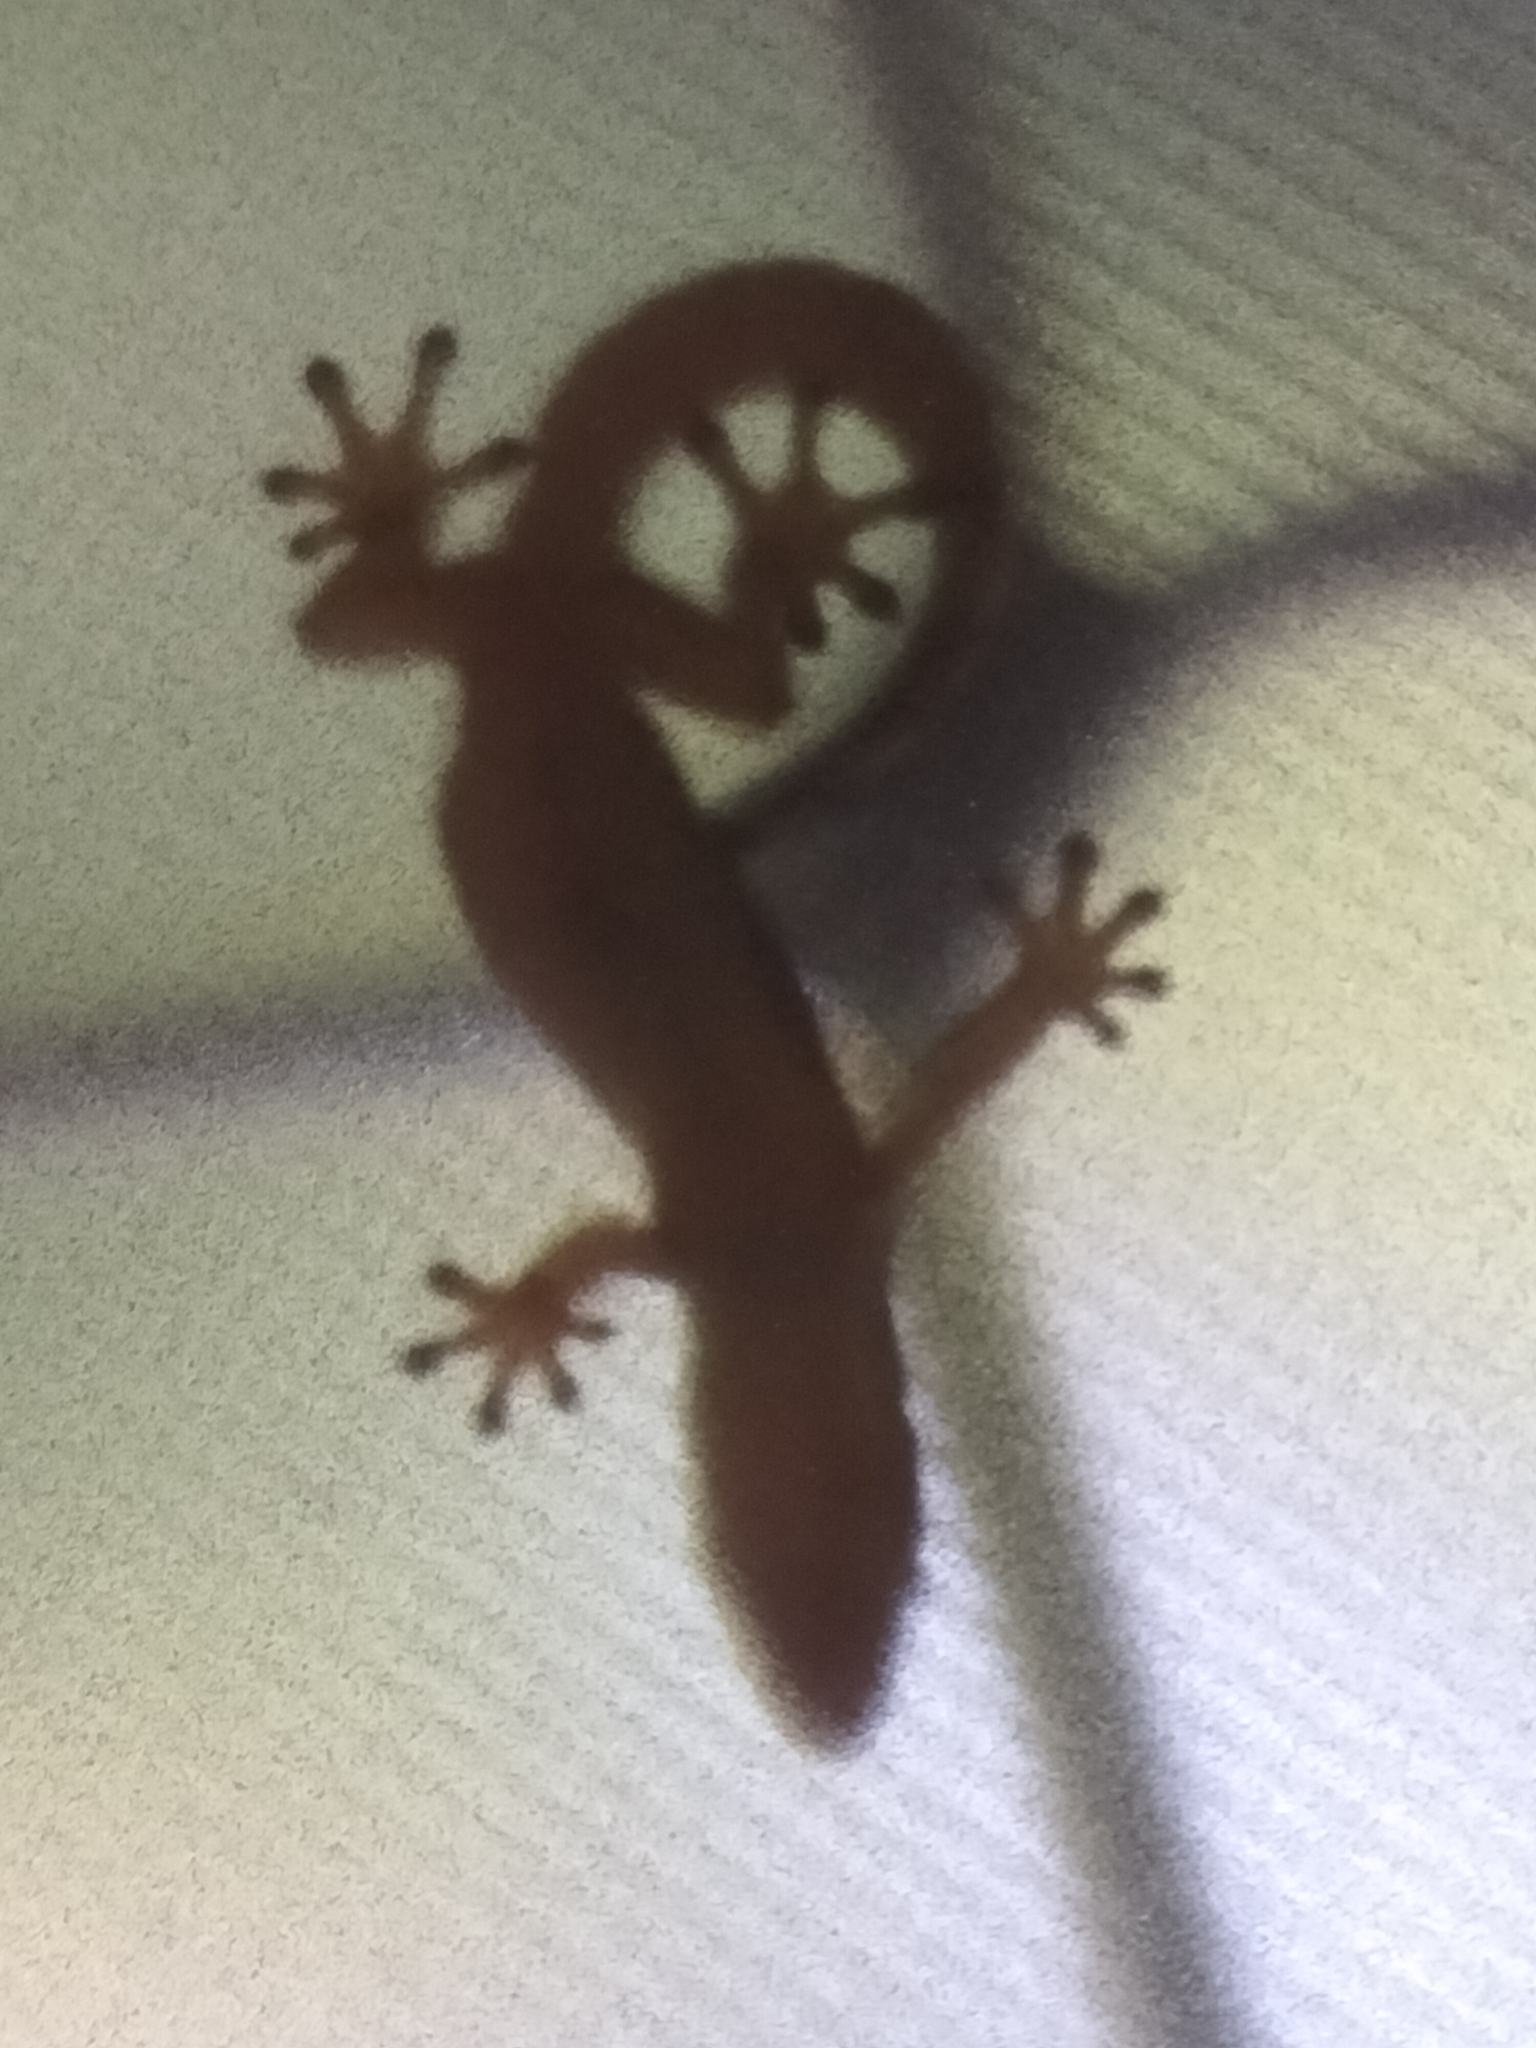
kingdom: Animalia
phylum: Chordata
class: Squamata
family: Gekkonidae
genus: Lepidodactylus
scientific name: Lepidodactylus lugubris
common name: Mourning gecko
